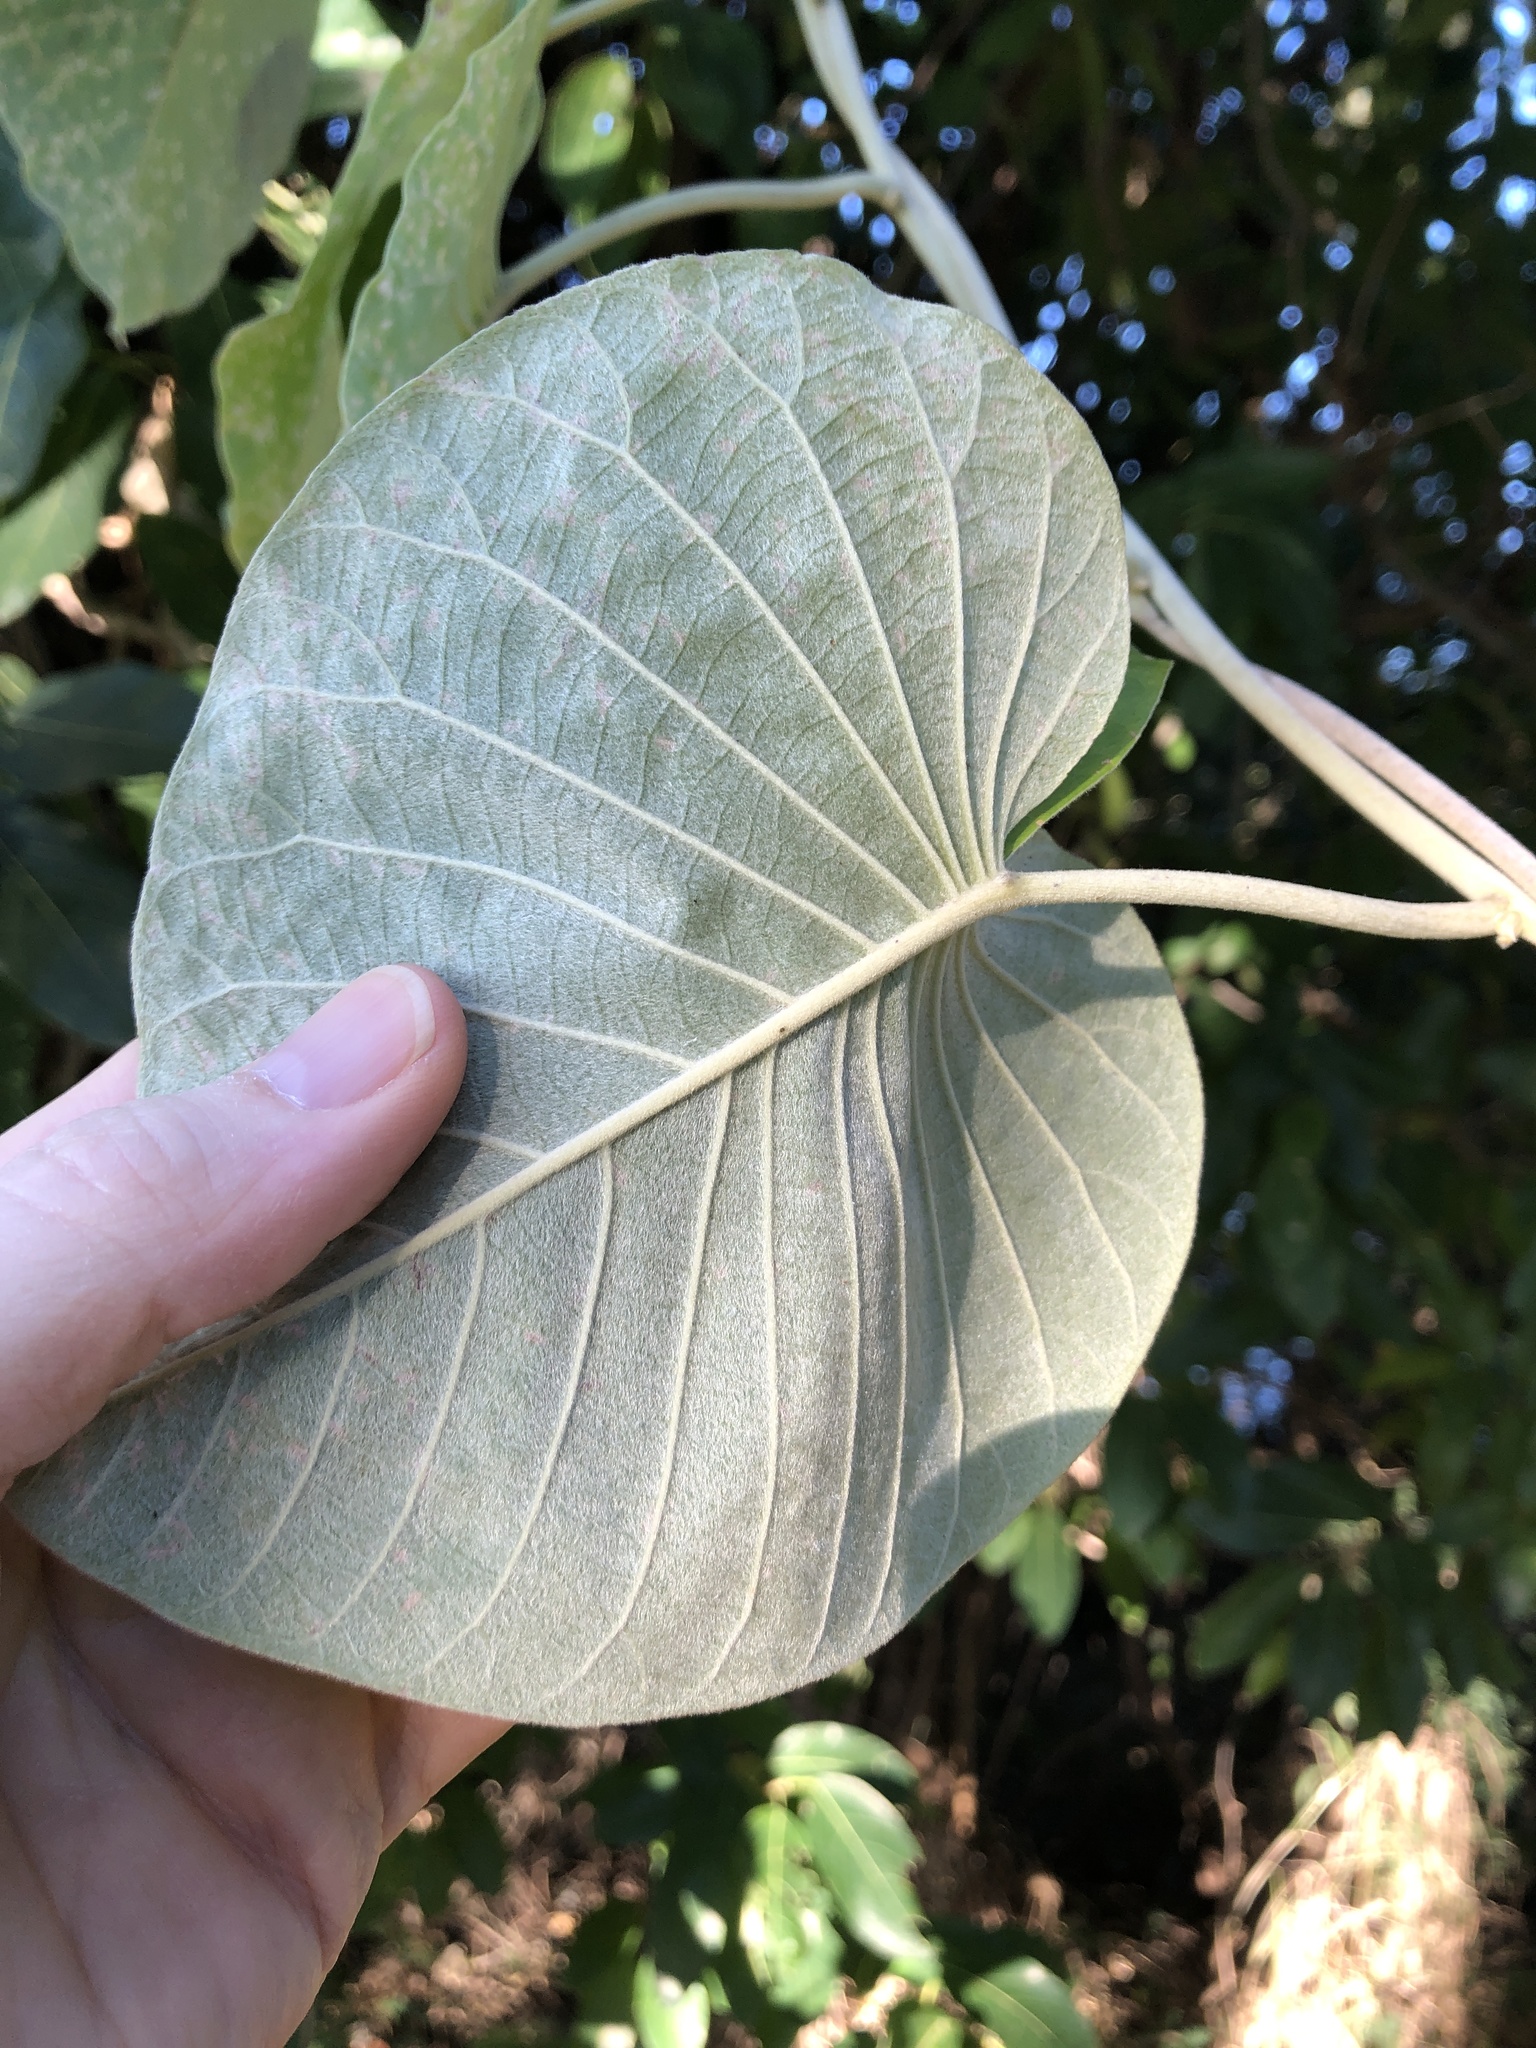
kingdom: Plantae
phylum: Tracheophyta
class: Magnoliopsida
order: Solanales
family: Convolvulaceae
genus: Argyreia
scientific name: Argyreia nervosa
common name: Elephant creeper
